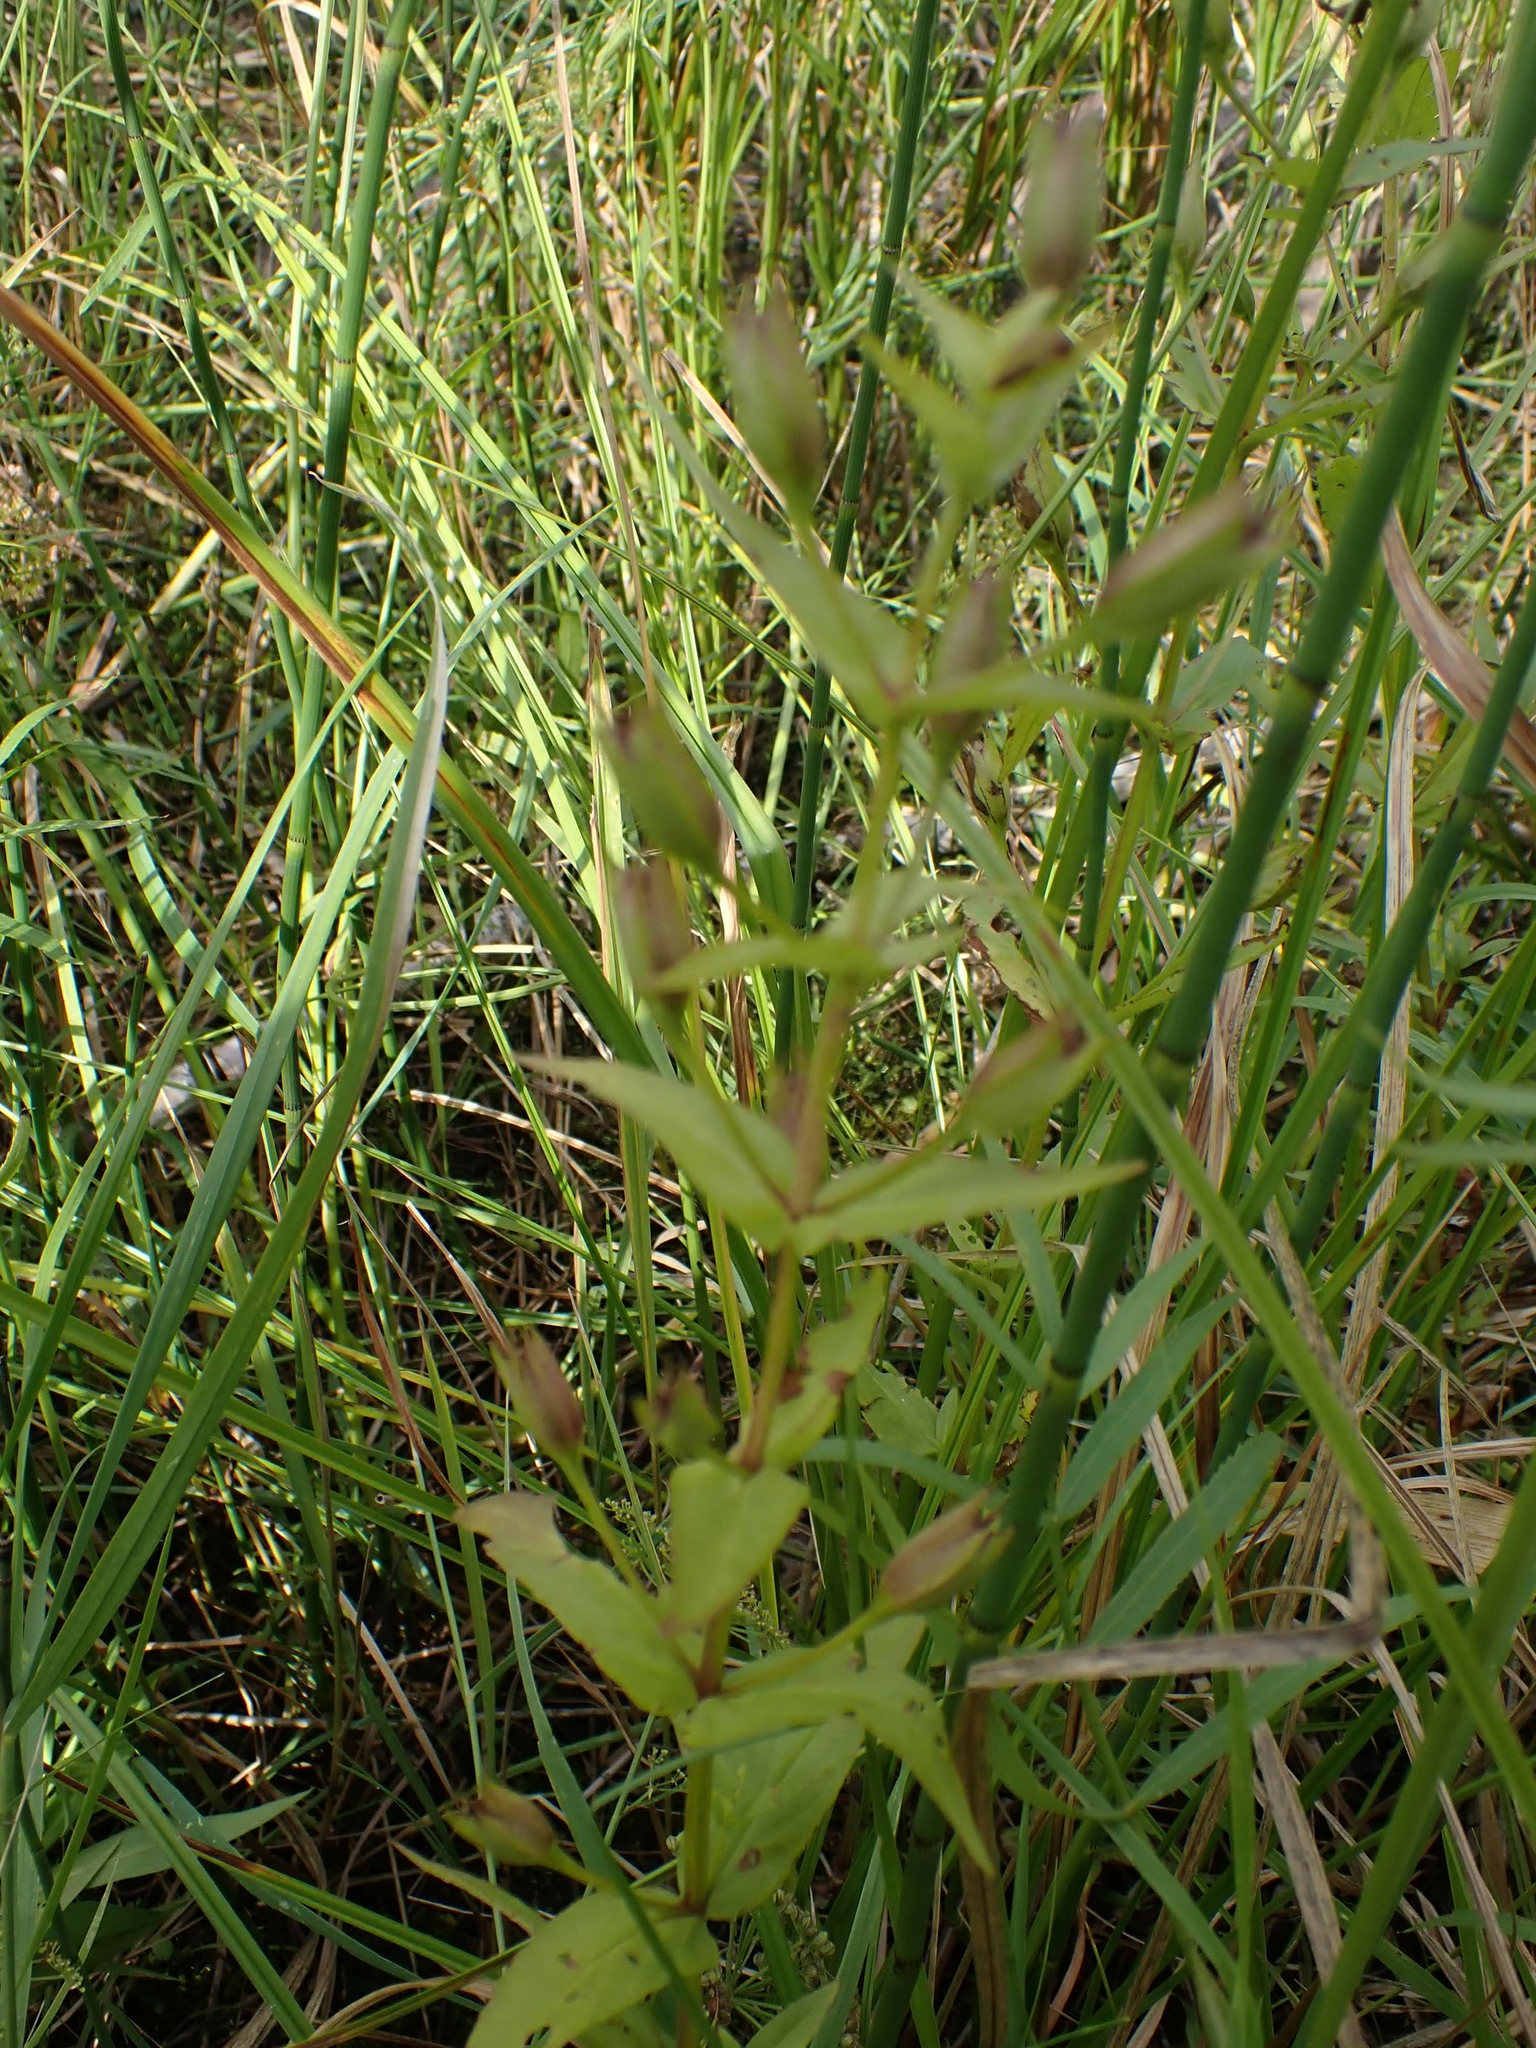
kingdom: Plantae
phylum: Tracheophyta
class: Magnoliopsida
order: Lamiales
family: Phrymaceae
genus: Mimulus
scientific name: Mimulus ringens
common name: Allegheny monkeyflower
